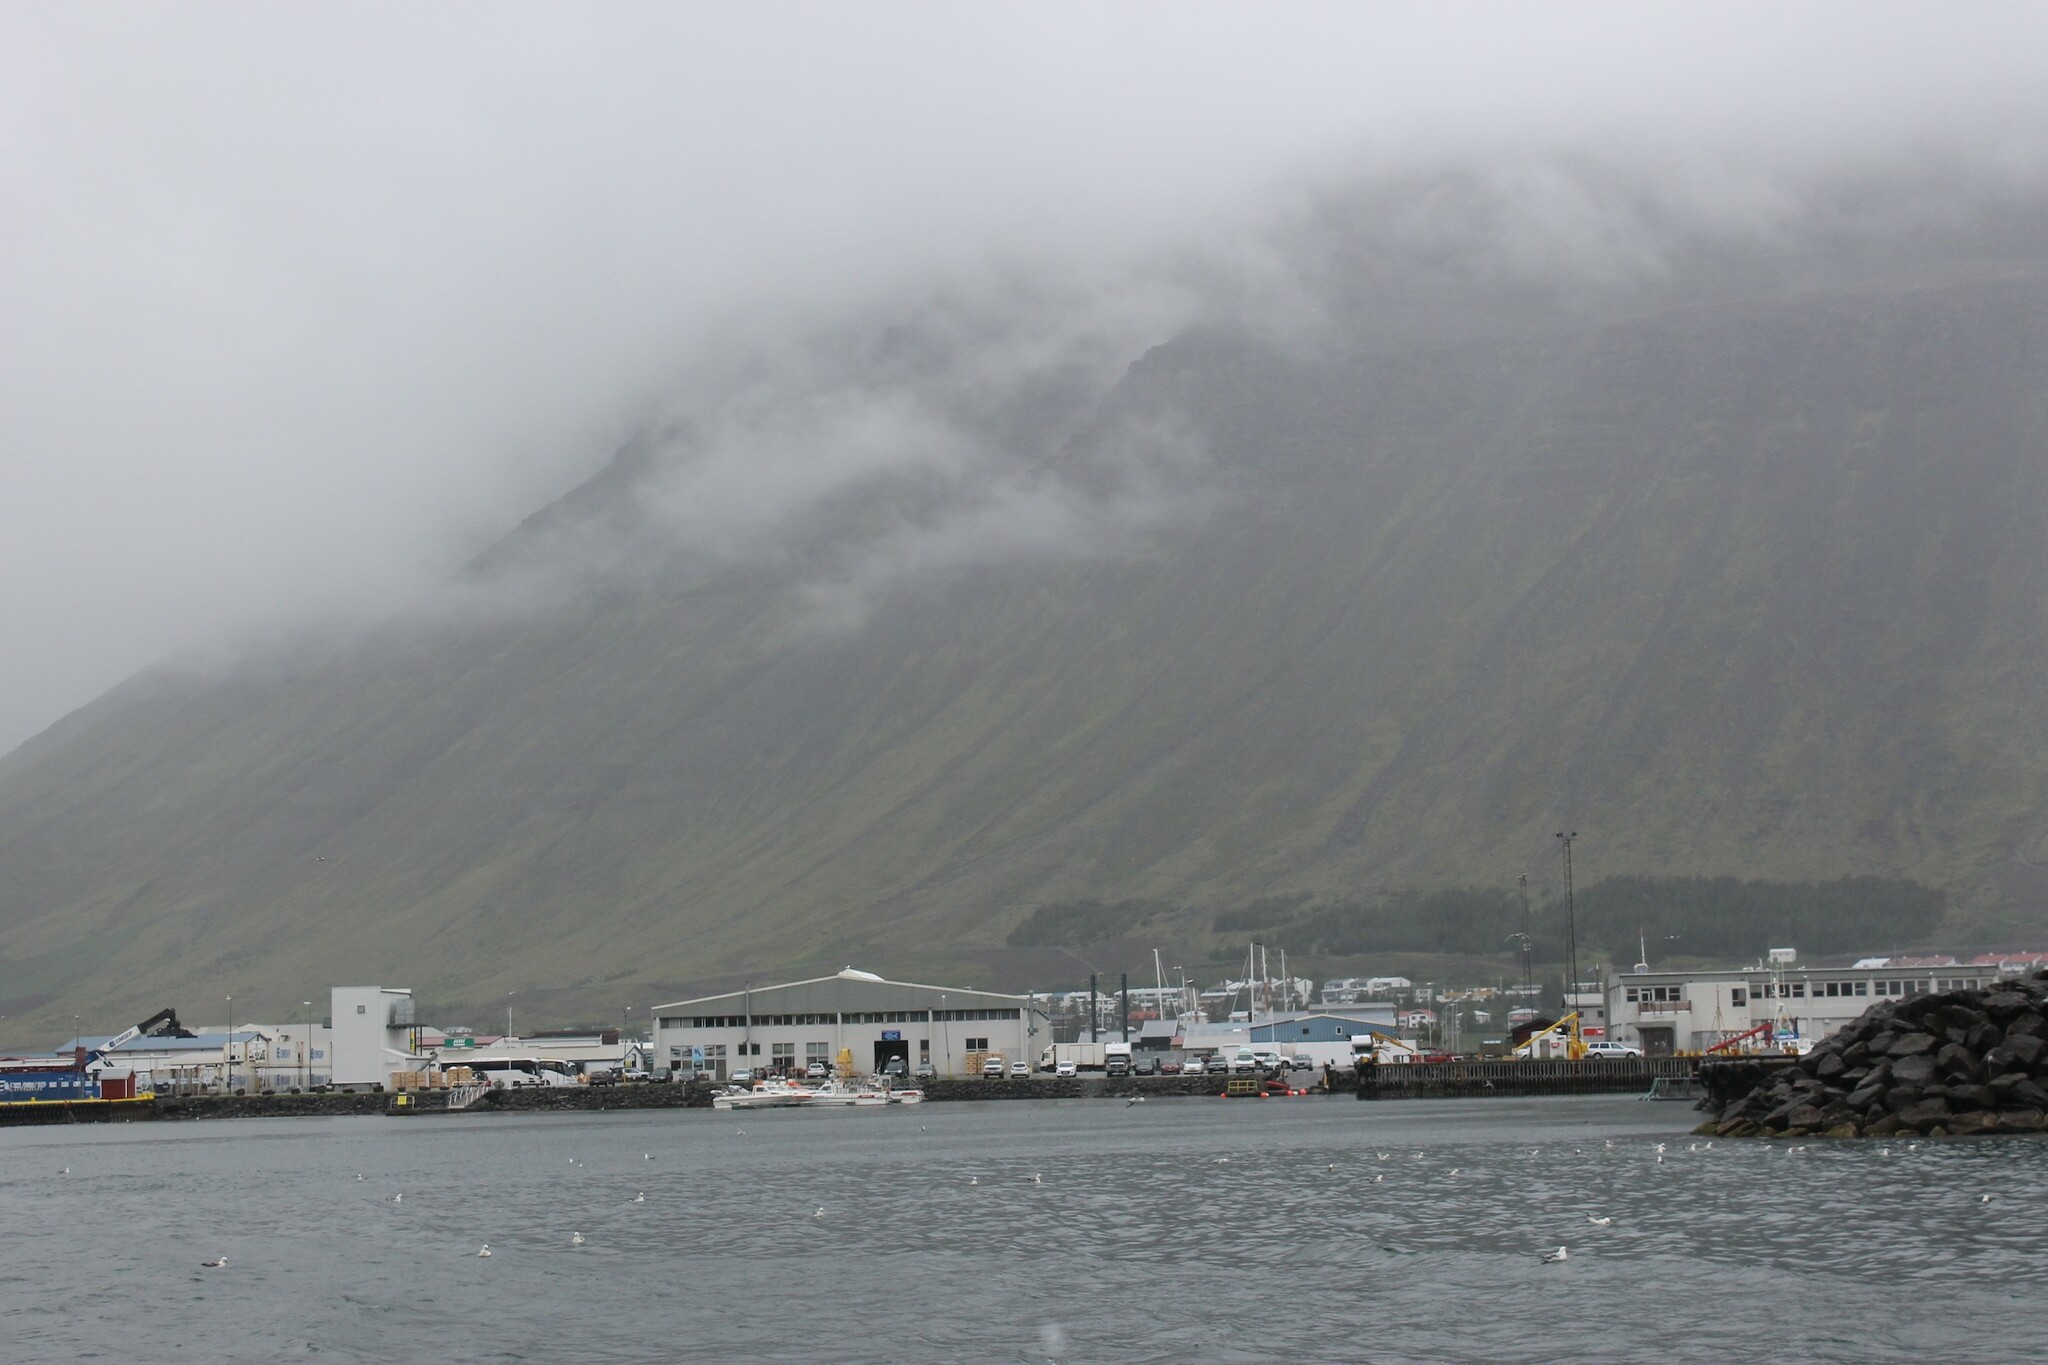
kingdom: Animalia
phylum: Chordata
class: Aves
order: Procellariiformes
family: Procellariidae
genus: Fulmarus
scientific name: Fulmarus glacialis
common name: Northern fulmar
